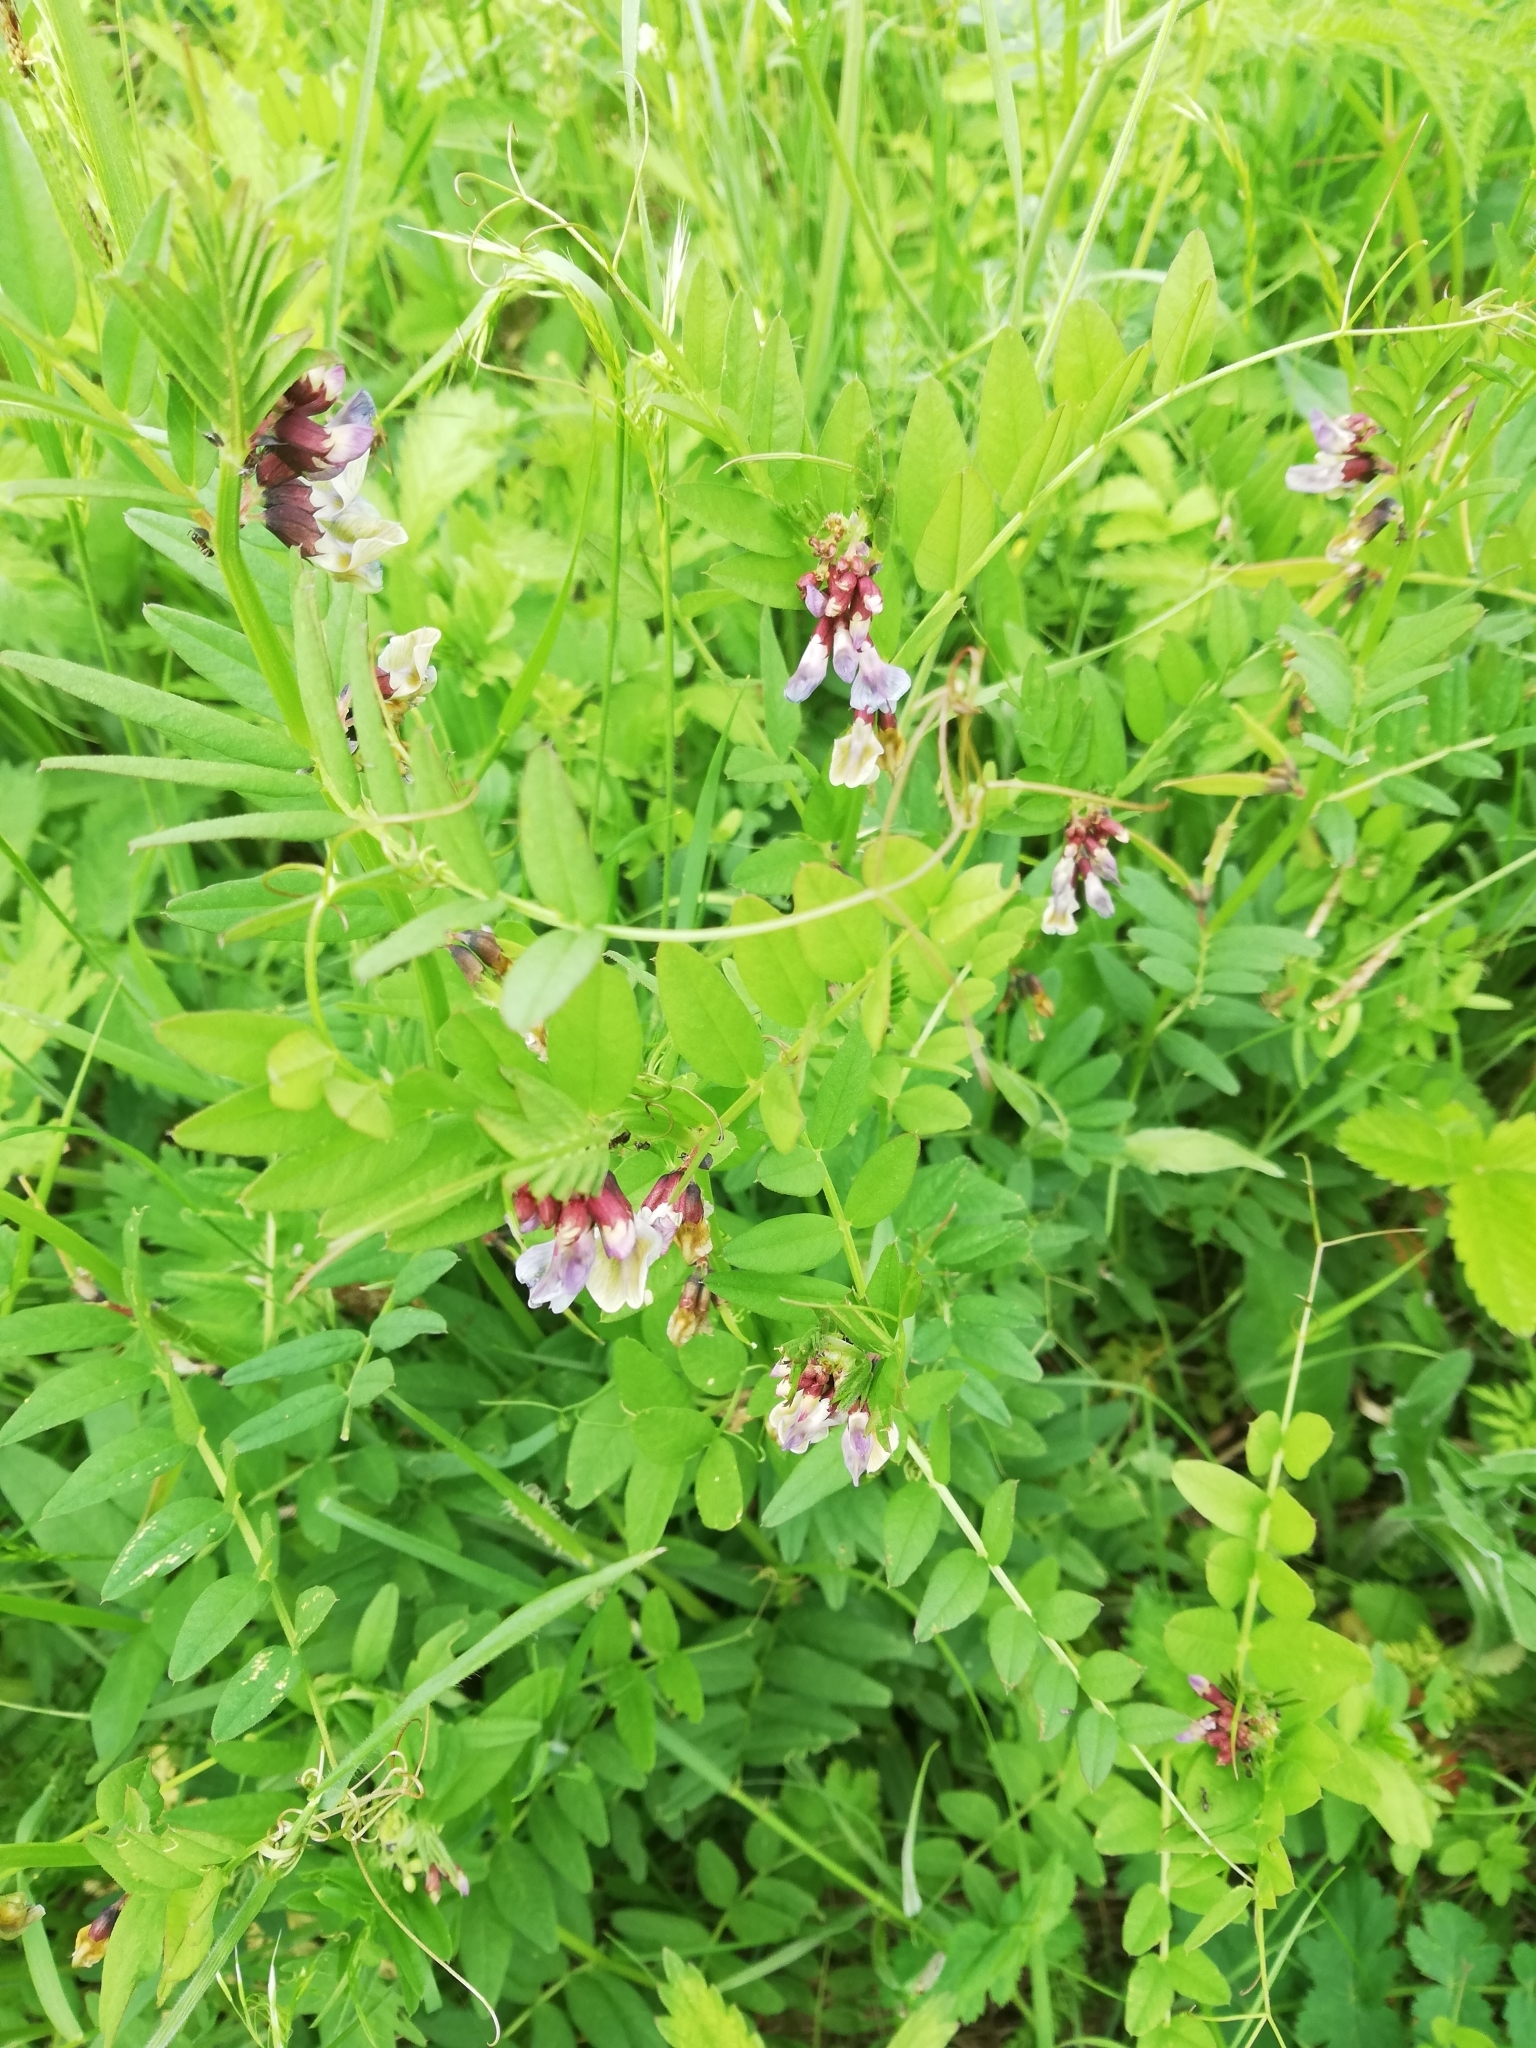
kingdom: Plantae
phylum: Tracheophyta
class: Magnoliopsida
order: Fabales
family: Fabaceae
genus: Vicia
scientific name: Vicia sepium
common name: Bush vetch
